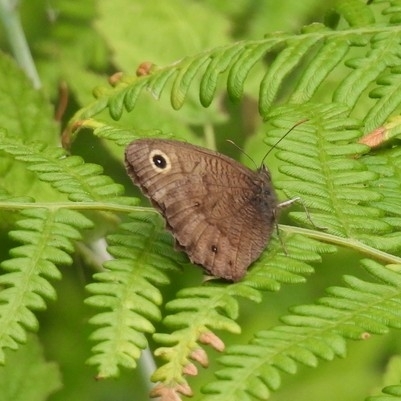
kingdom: Animalia
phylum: Arthropoda
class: Insecta
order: Lepidoptera
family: Nymphalidae
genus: Cercyonis
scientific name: Cercyonis pegala
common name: Common wood-nymph
